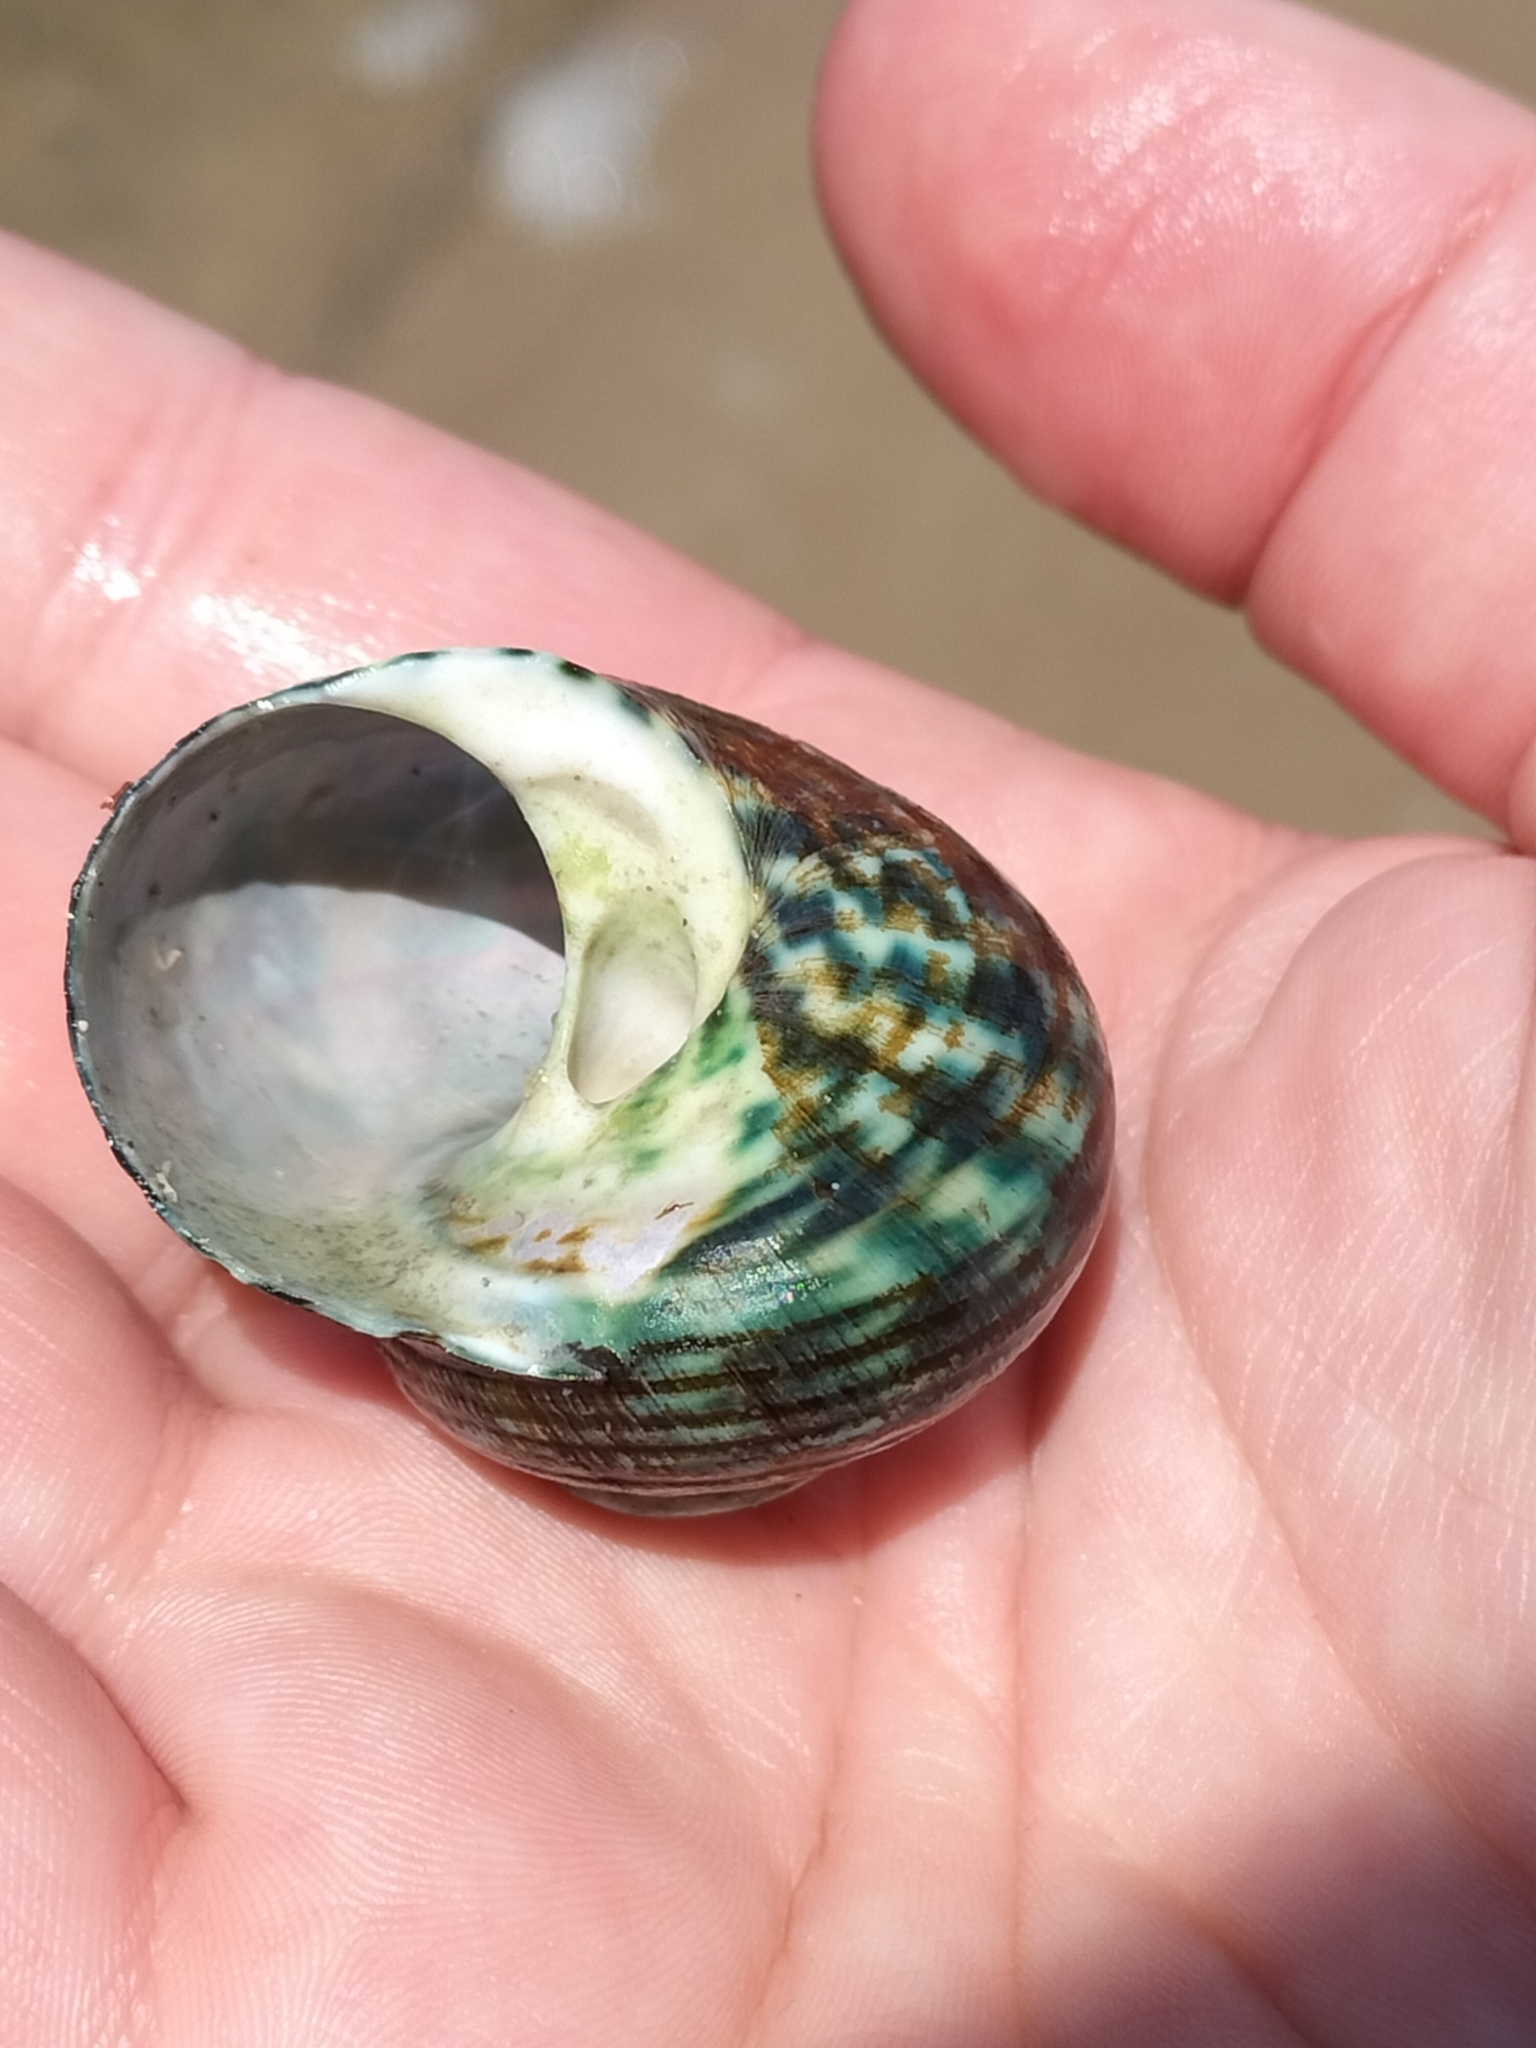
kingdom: Animalia
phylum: Mollusca
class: Gastropoda
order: Trochida
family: Turbinidae
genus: Lunella
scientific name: Lunella undulata
